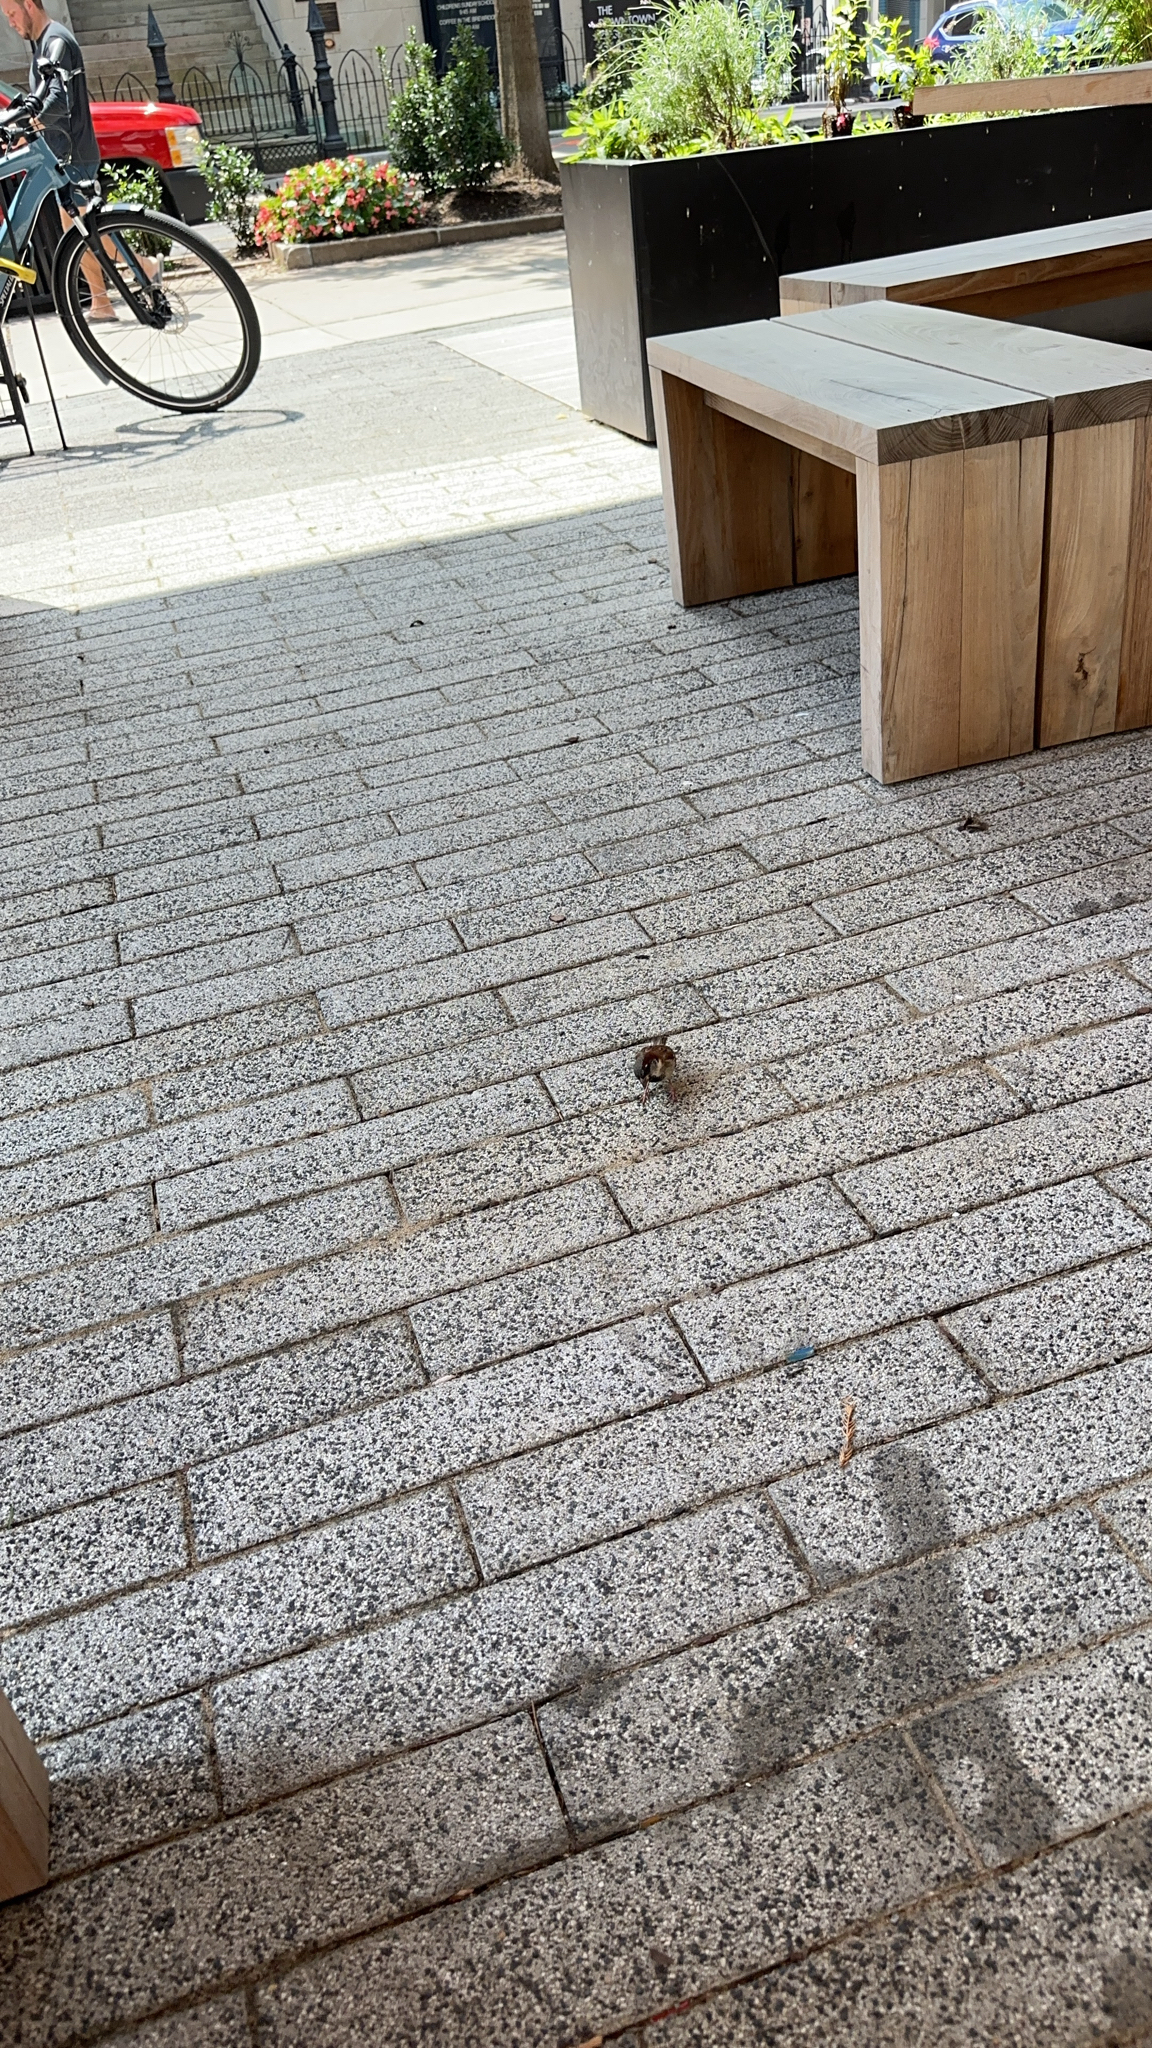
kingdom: Animalia
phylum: Chordata
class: Aves
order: Passeriformes
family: Passeridae
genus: Passer
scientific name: Passer domesticus
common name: House sparrow
